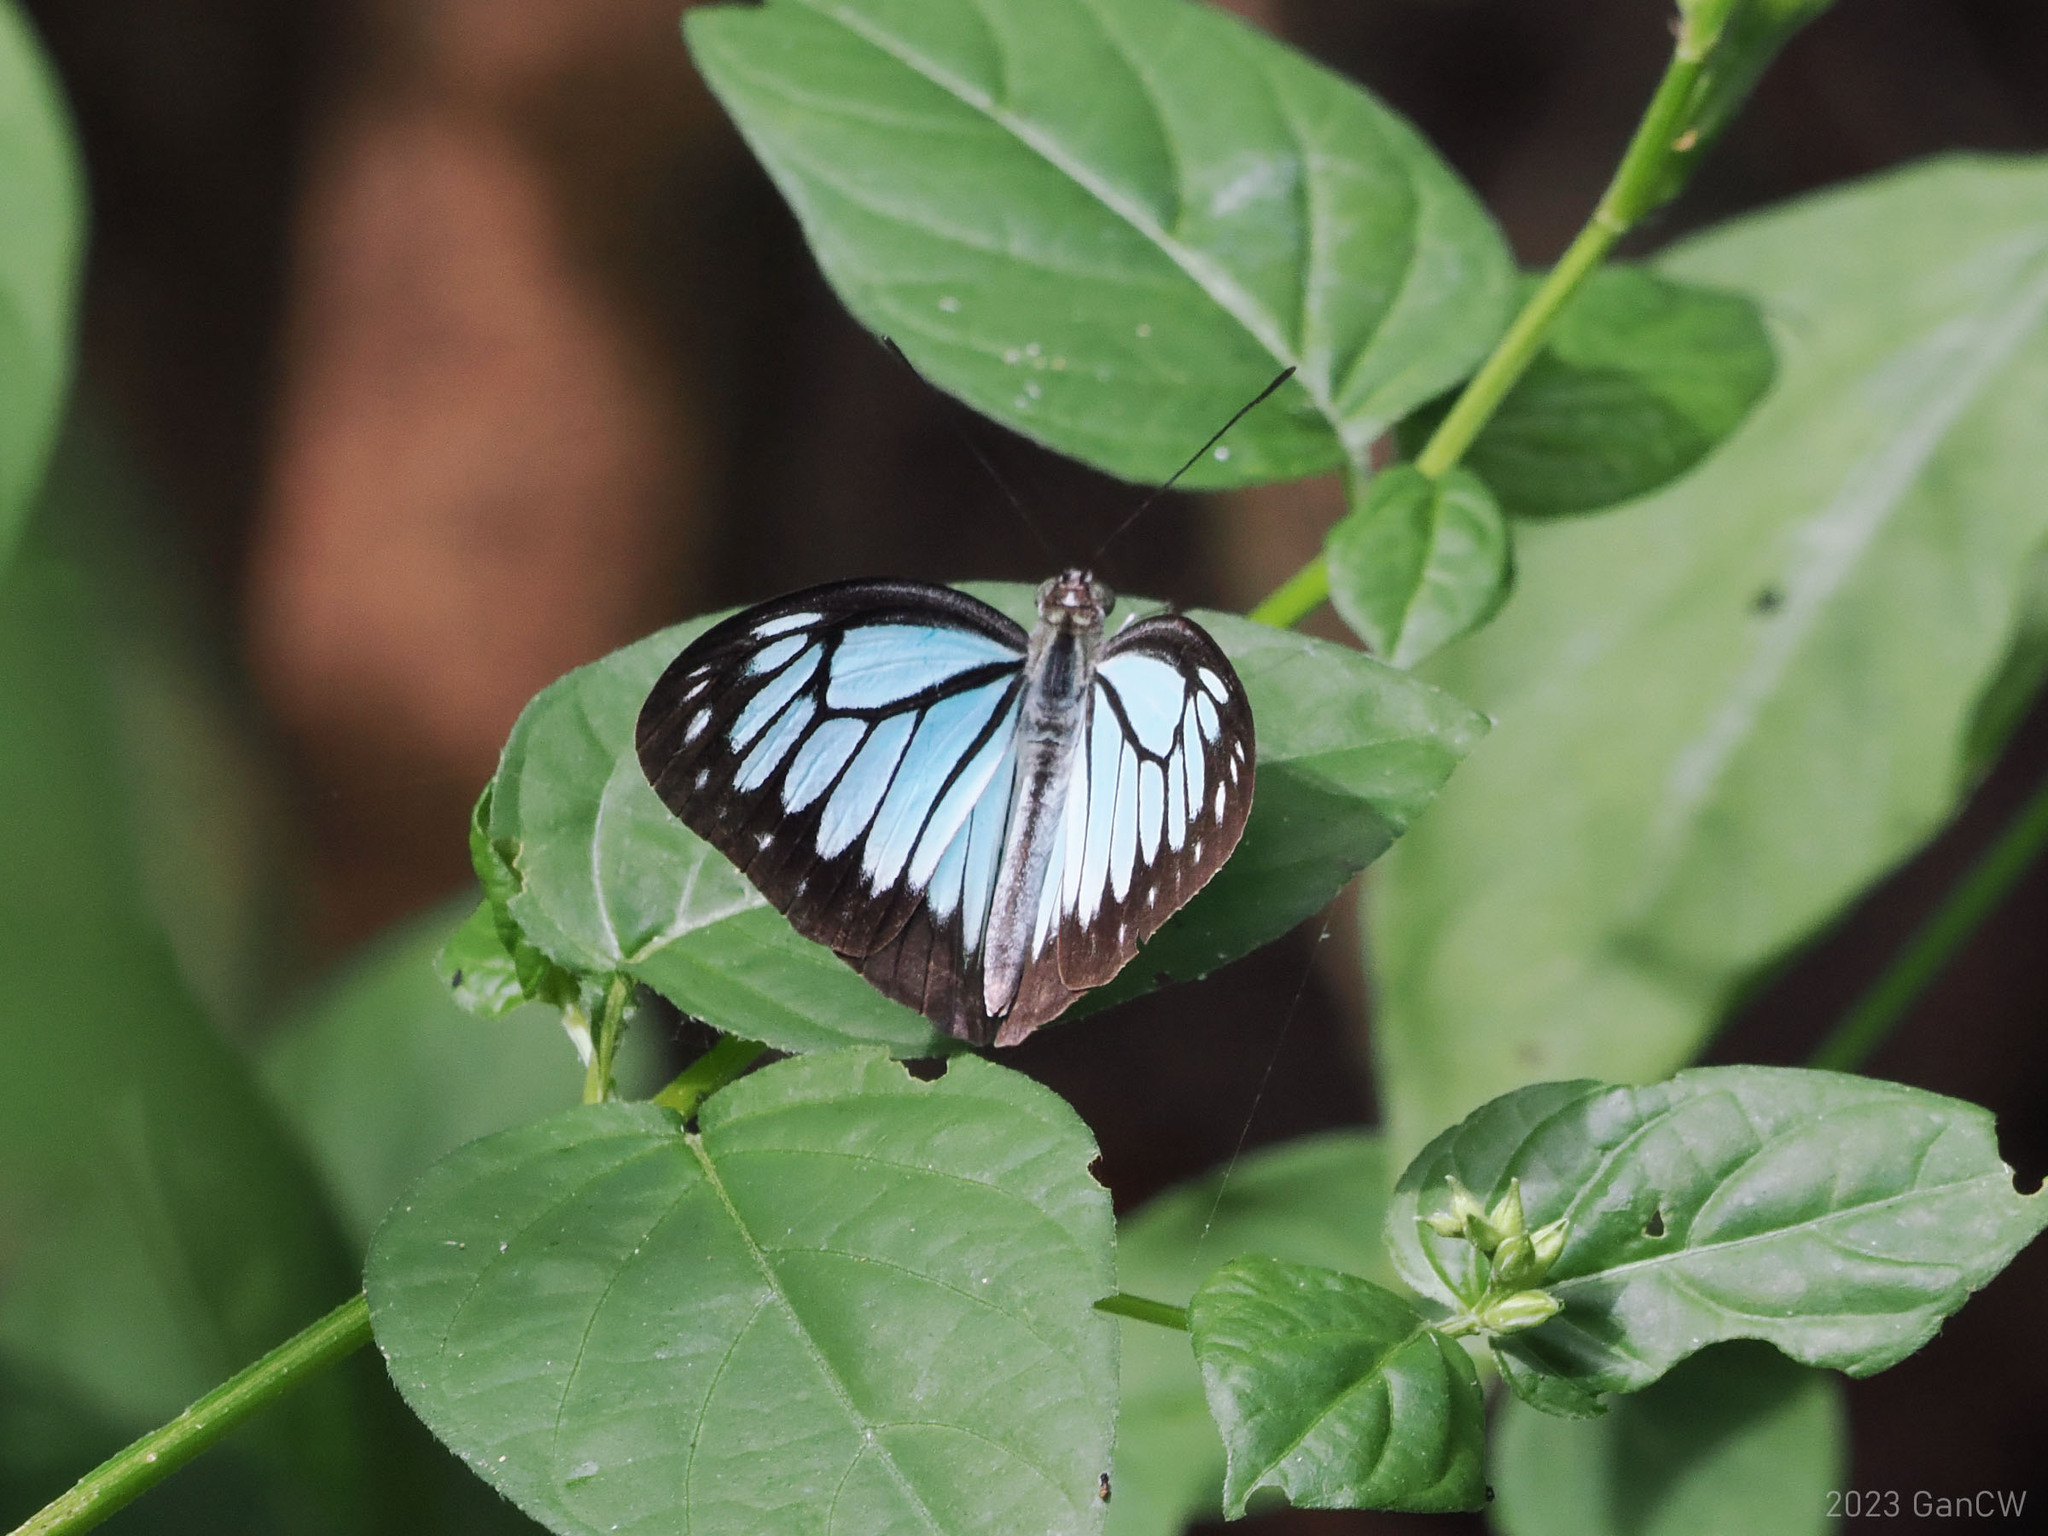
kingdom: Animalia
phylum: Arthropoda
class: Insecta
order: Lepidoptera
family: Pieridae
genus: Pareronia
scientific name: Pareronia boebera
